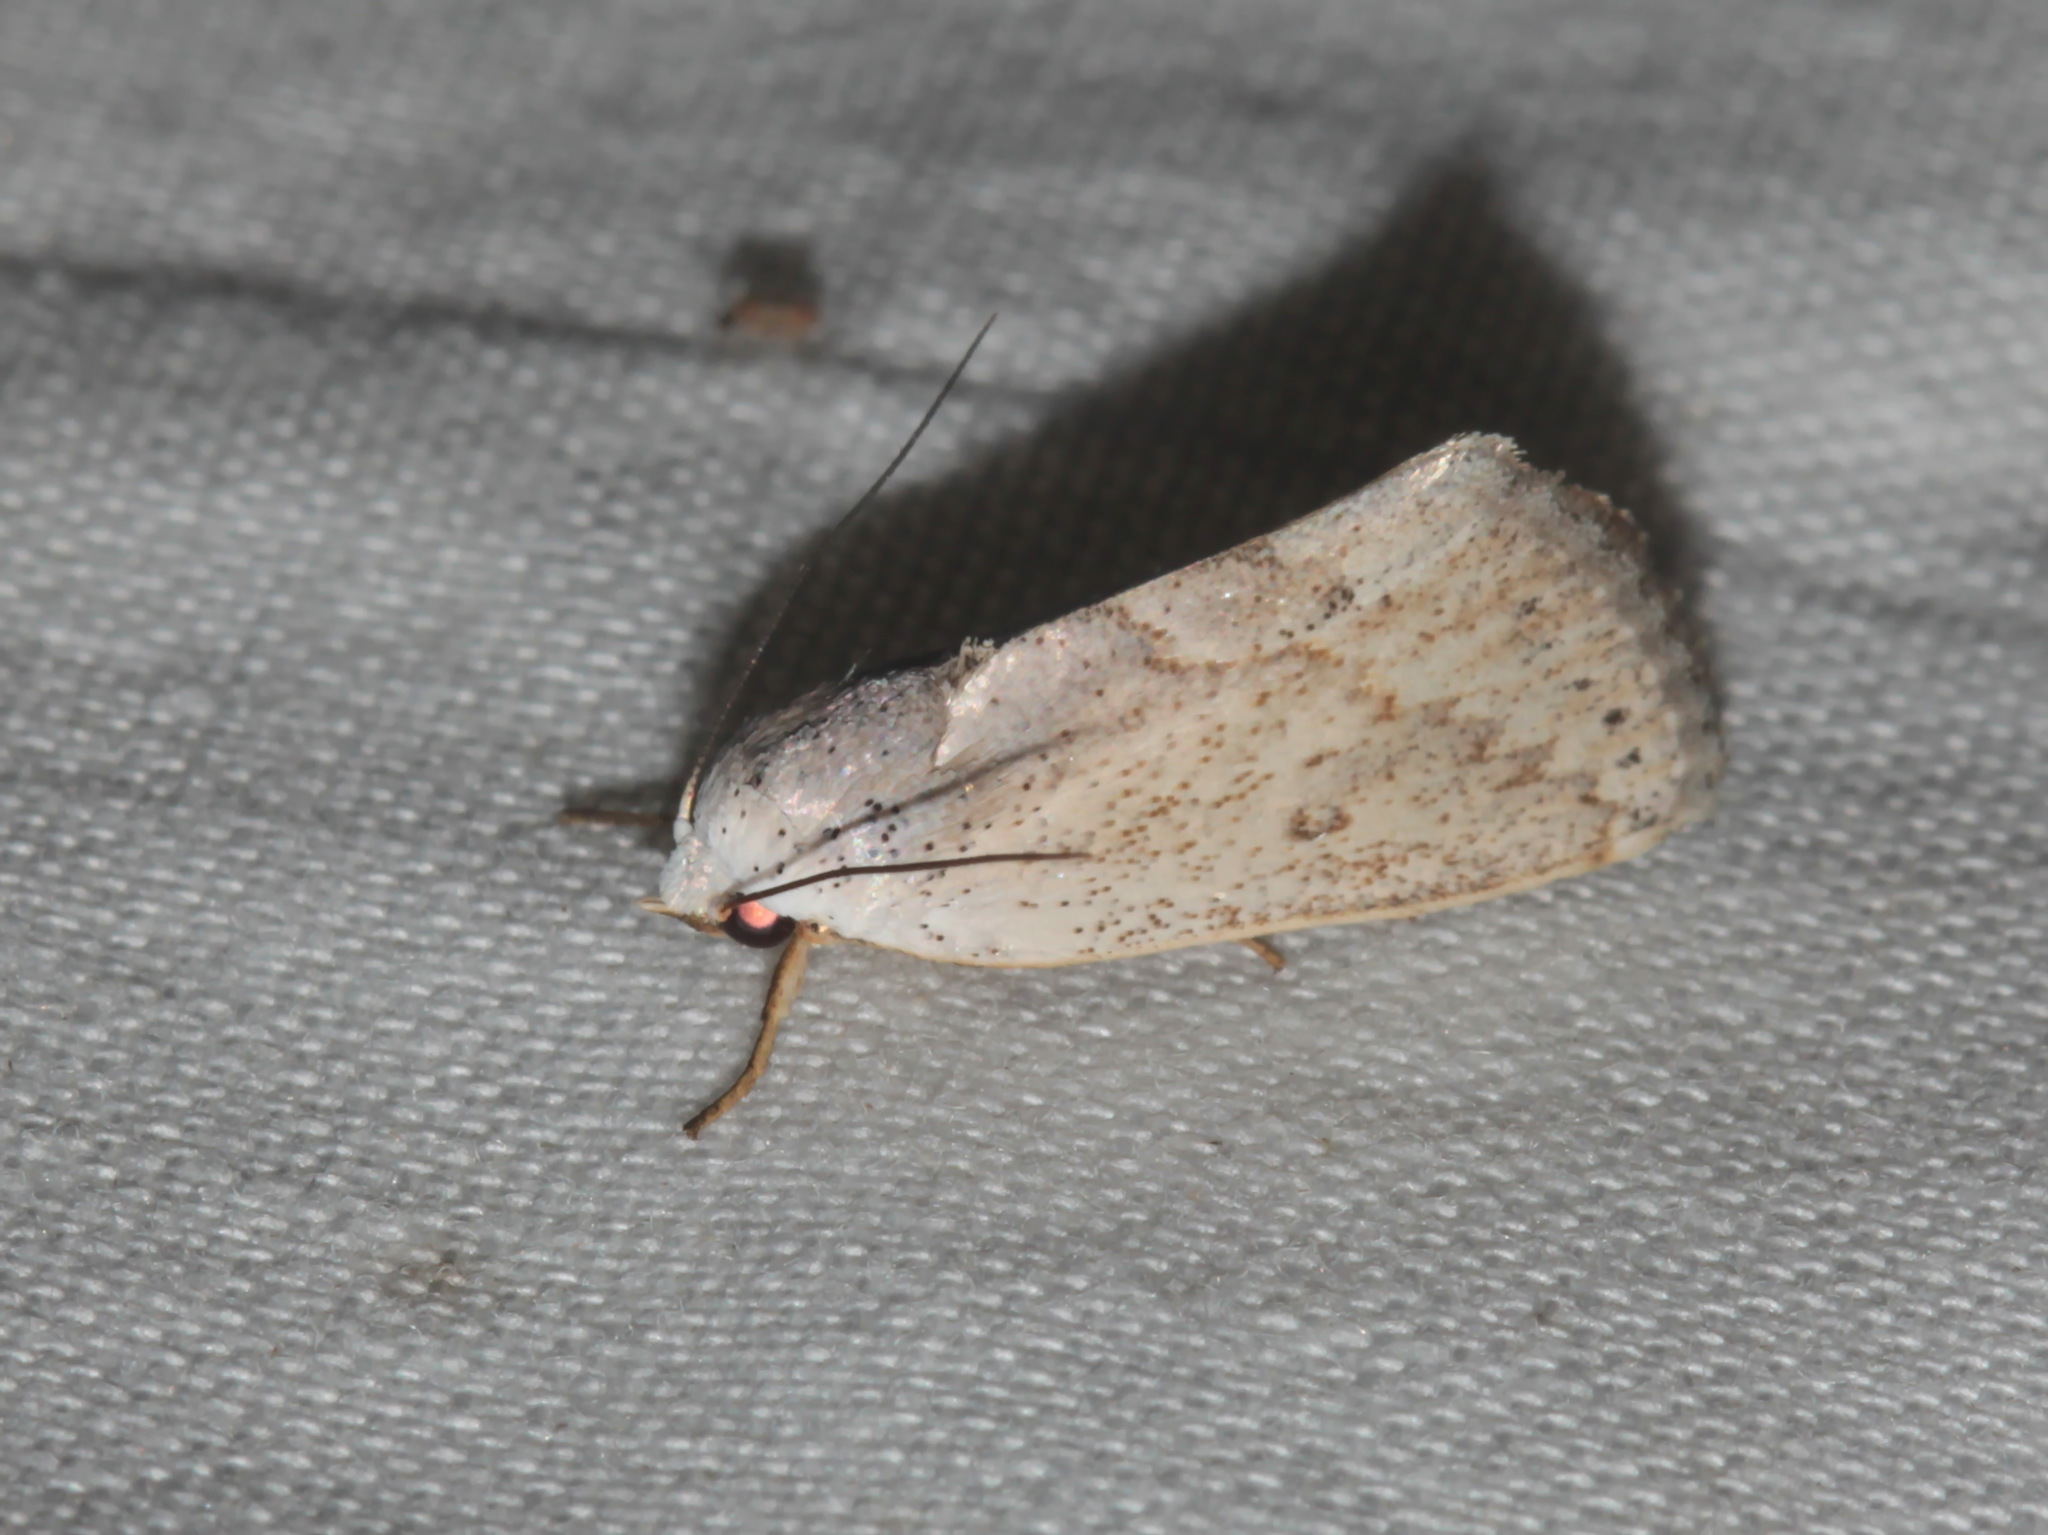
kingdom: Animalia
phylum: Arthropoda
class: Insecta
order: Lepidoptera
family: Nolidae
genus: Urbona
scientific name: Urbona dentilinealis
